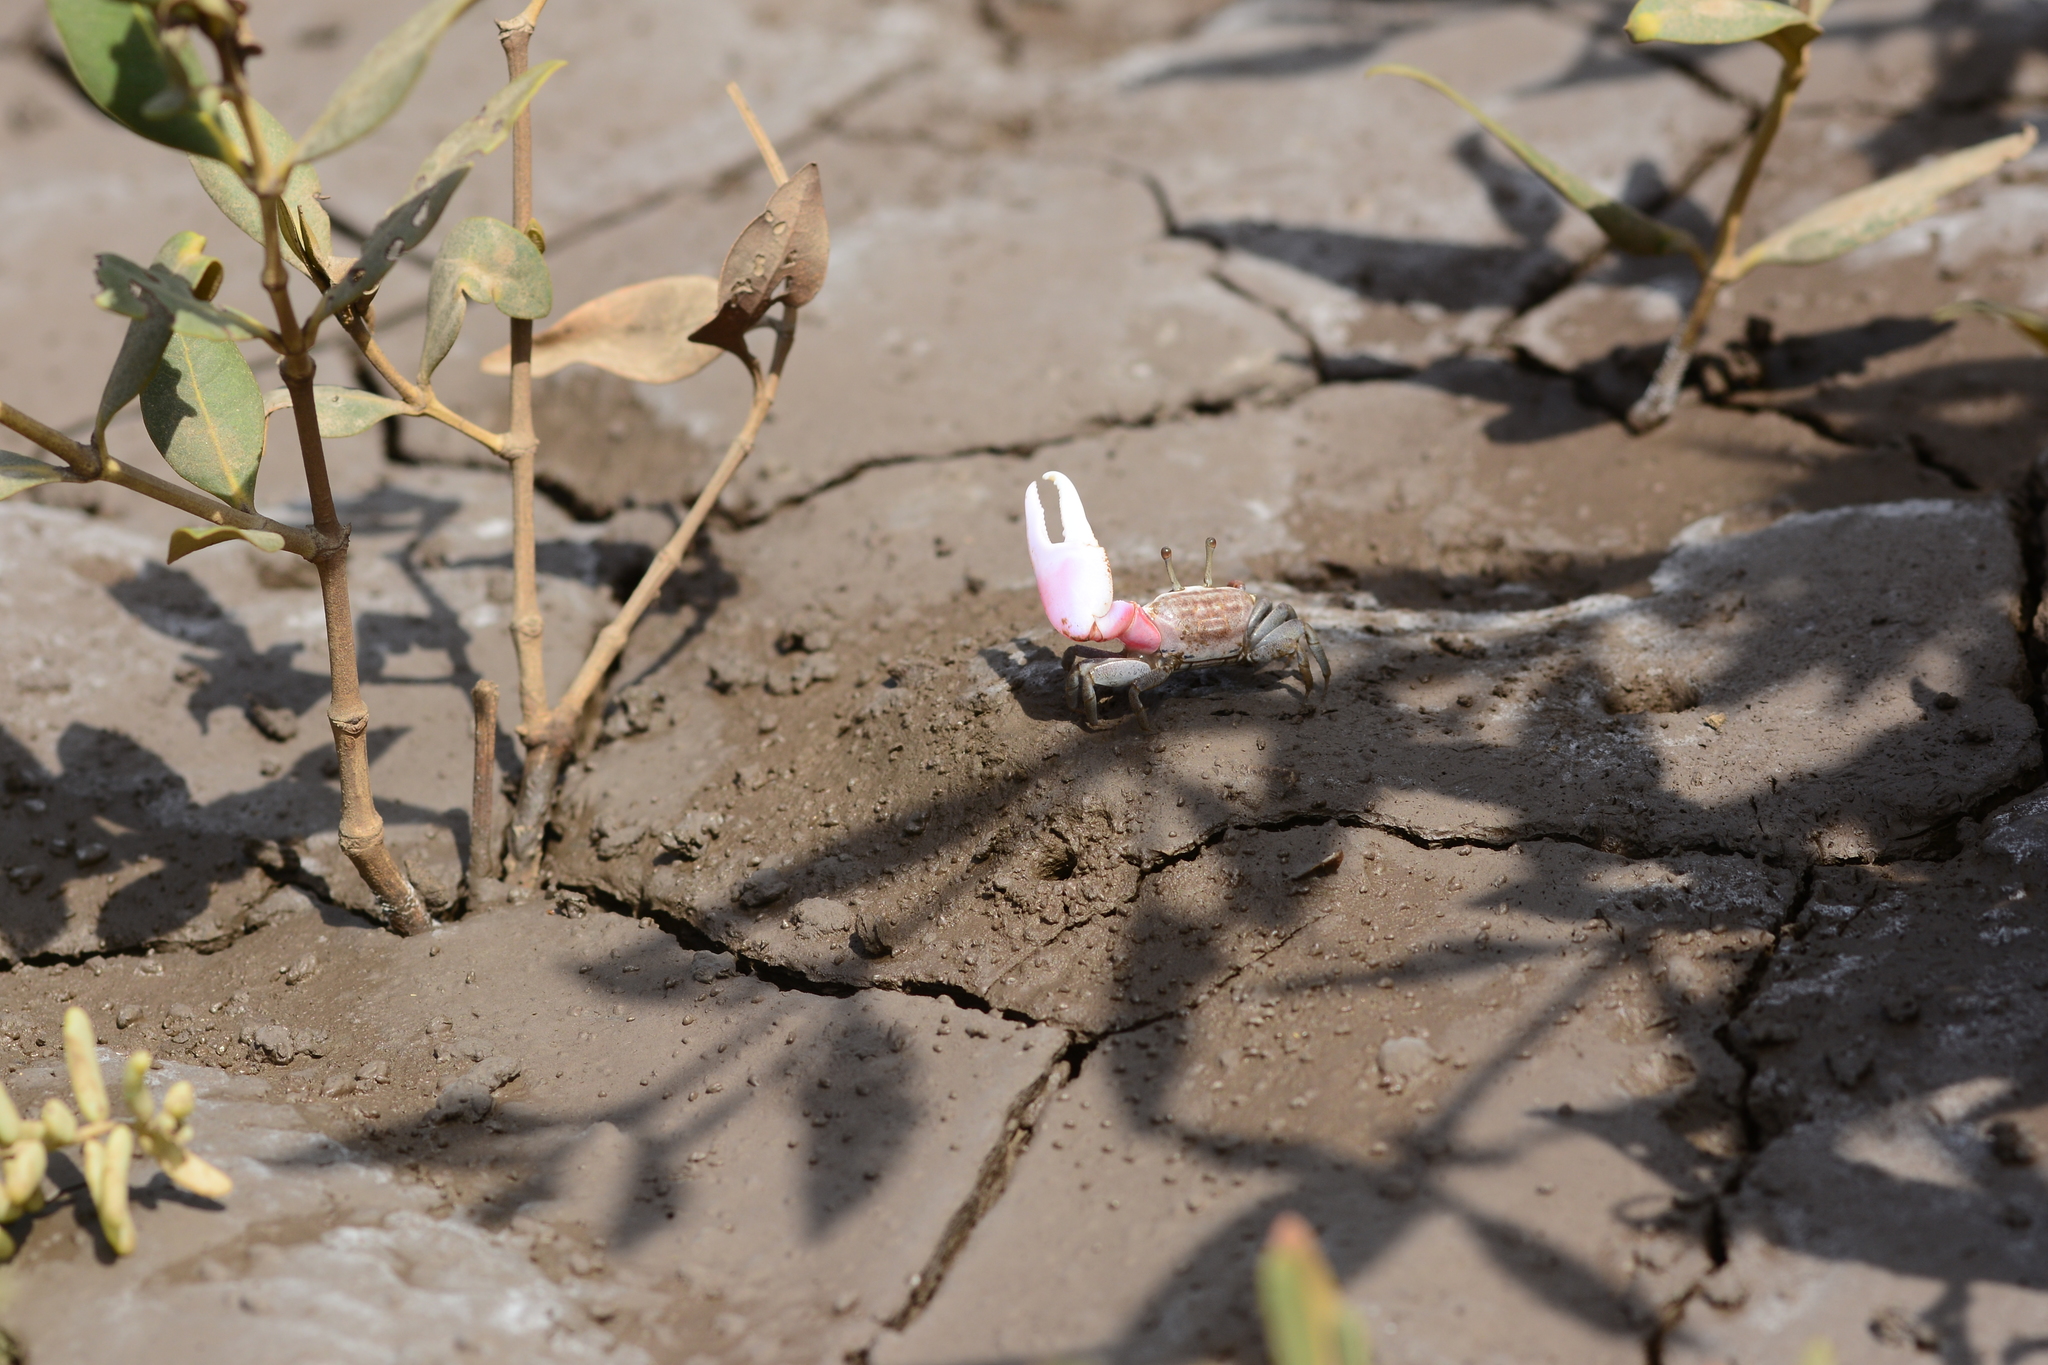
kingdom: Animalia
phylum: Arthropoda
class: Malacostraca
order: Decapoda
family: Ocypodidae
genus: Austruca
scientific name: Austruca sindensis
